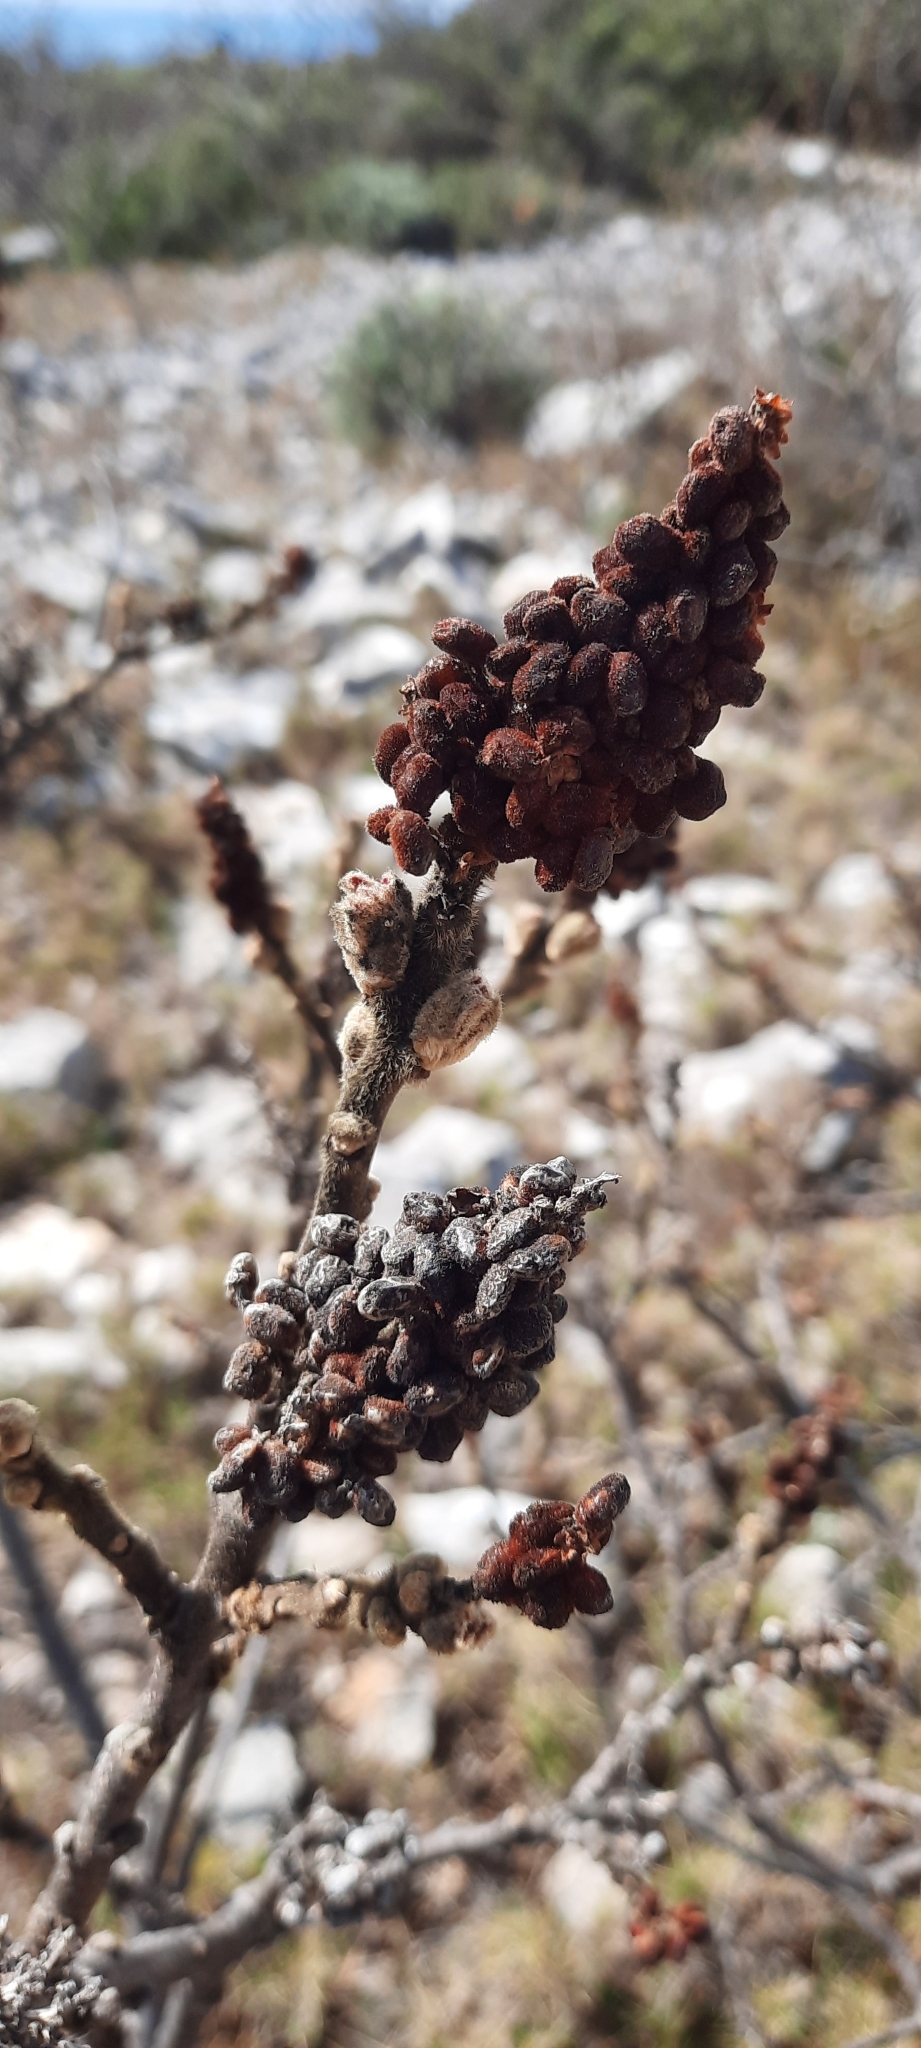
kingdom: Plantae
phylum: Tracheophyta
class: Magnoliopsida
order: Sapindales
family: Anacardiaceae
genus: Rhus
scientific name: Rhus coriaria
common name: Tanner's sumach
